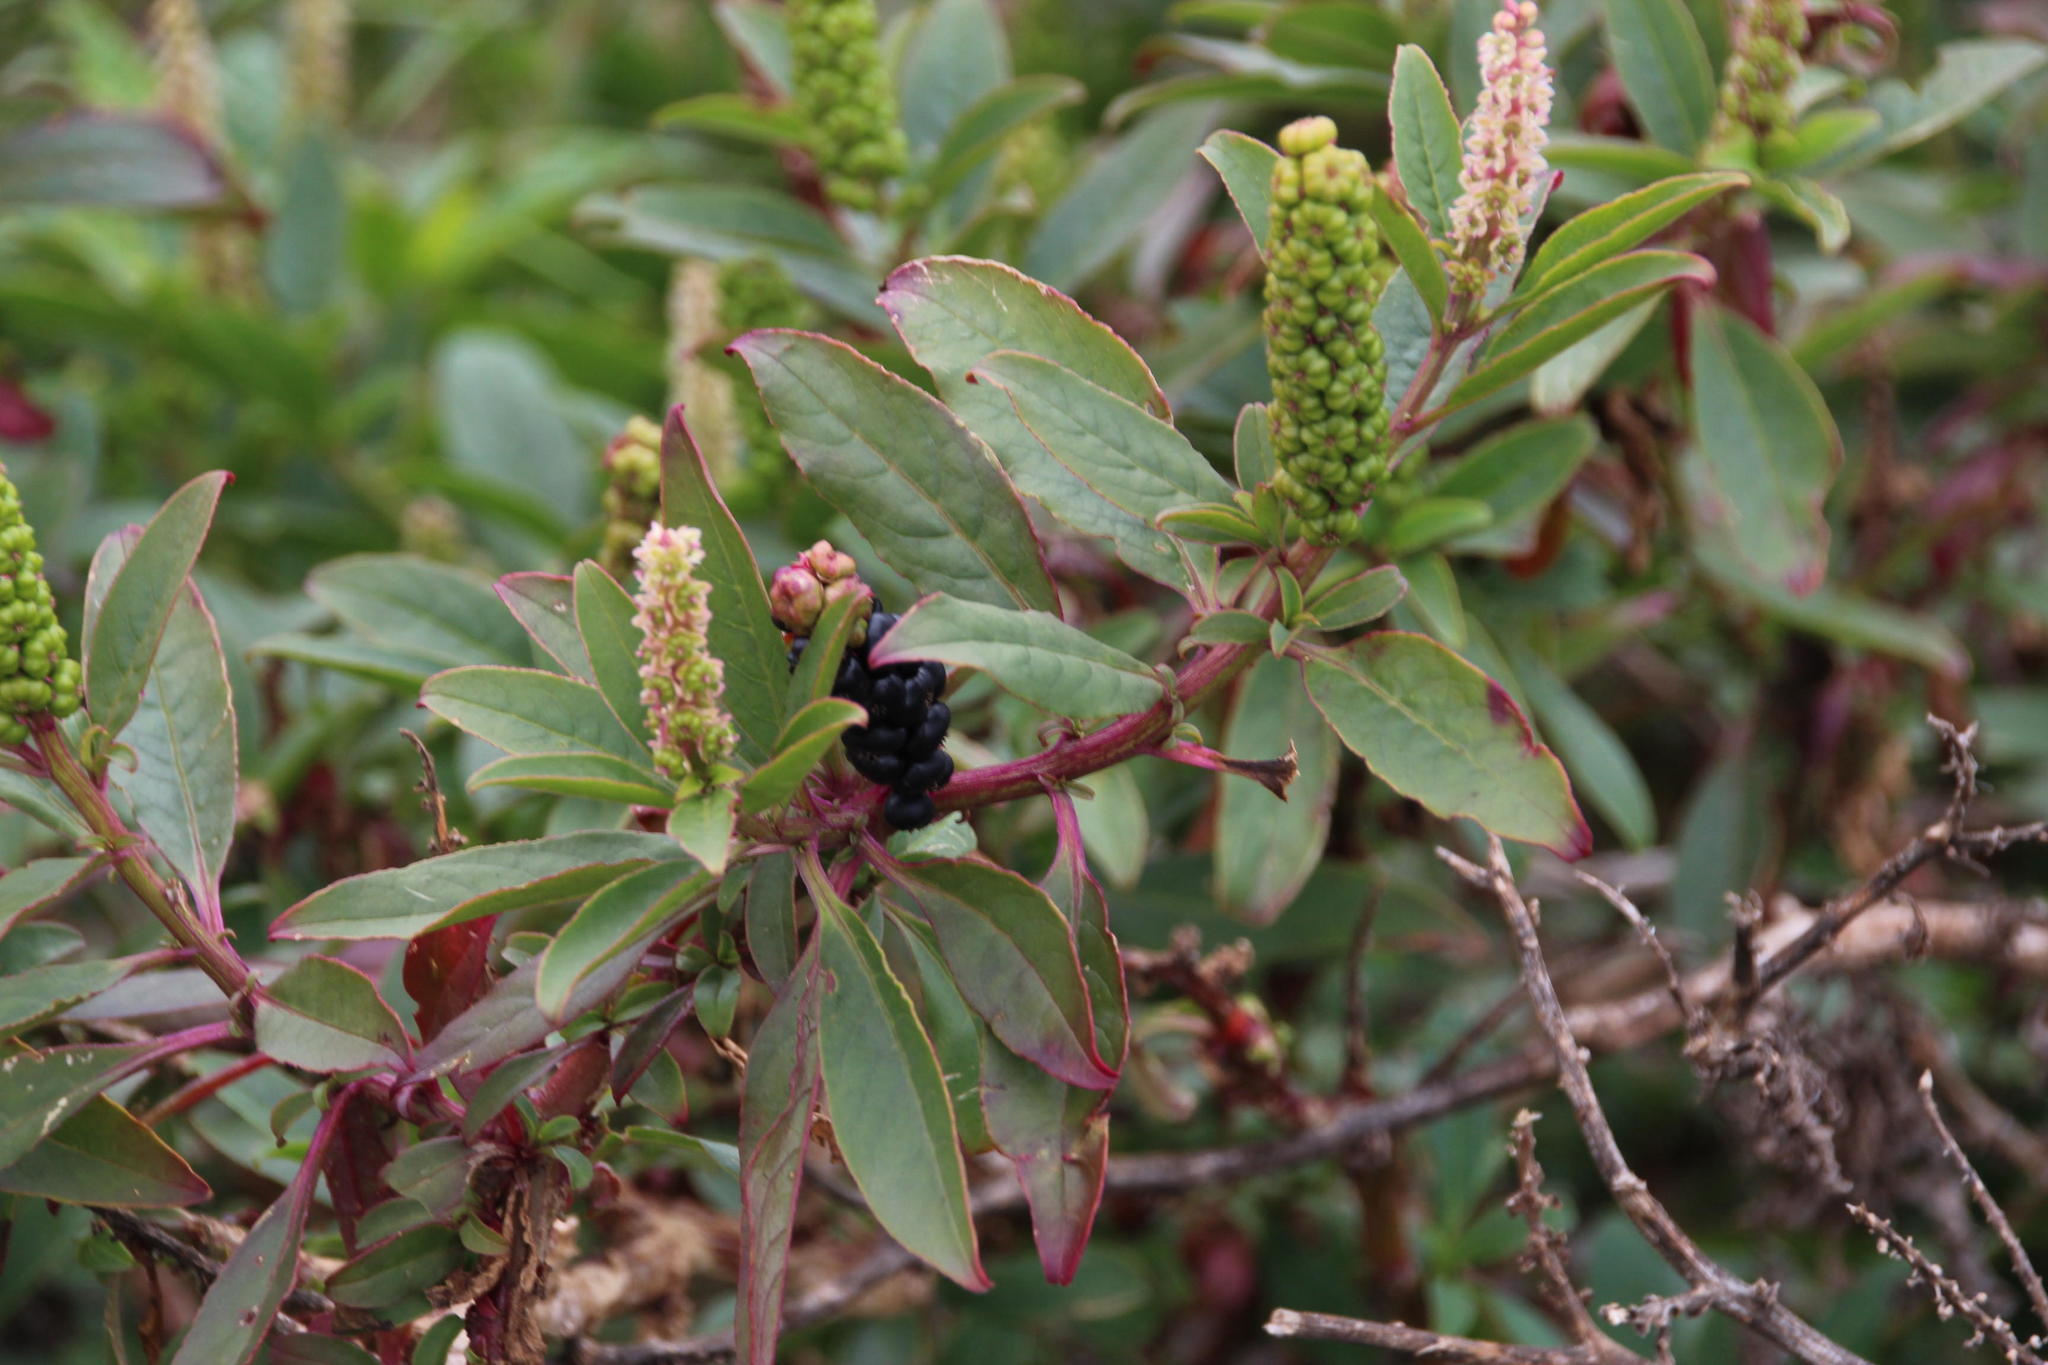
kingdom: Plantae
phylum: Tracheophyta
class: Magnoliopsida
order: Caryophyllales
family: Phytolaccaceae
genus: Phytolacca
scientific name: Phytolacca icosandra
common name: Button pokeweed
